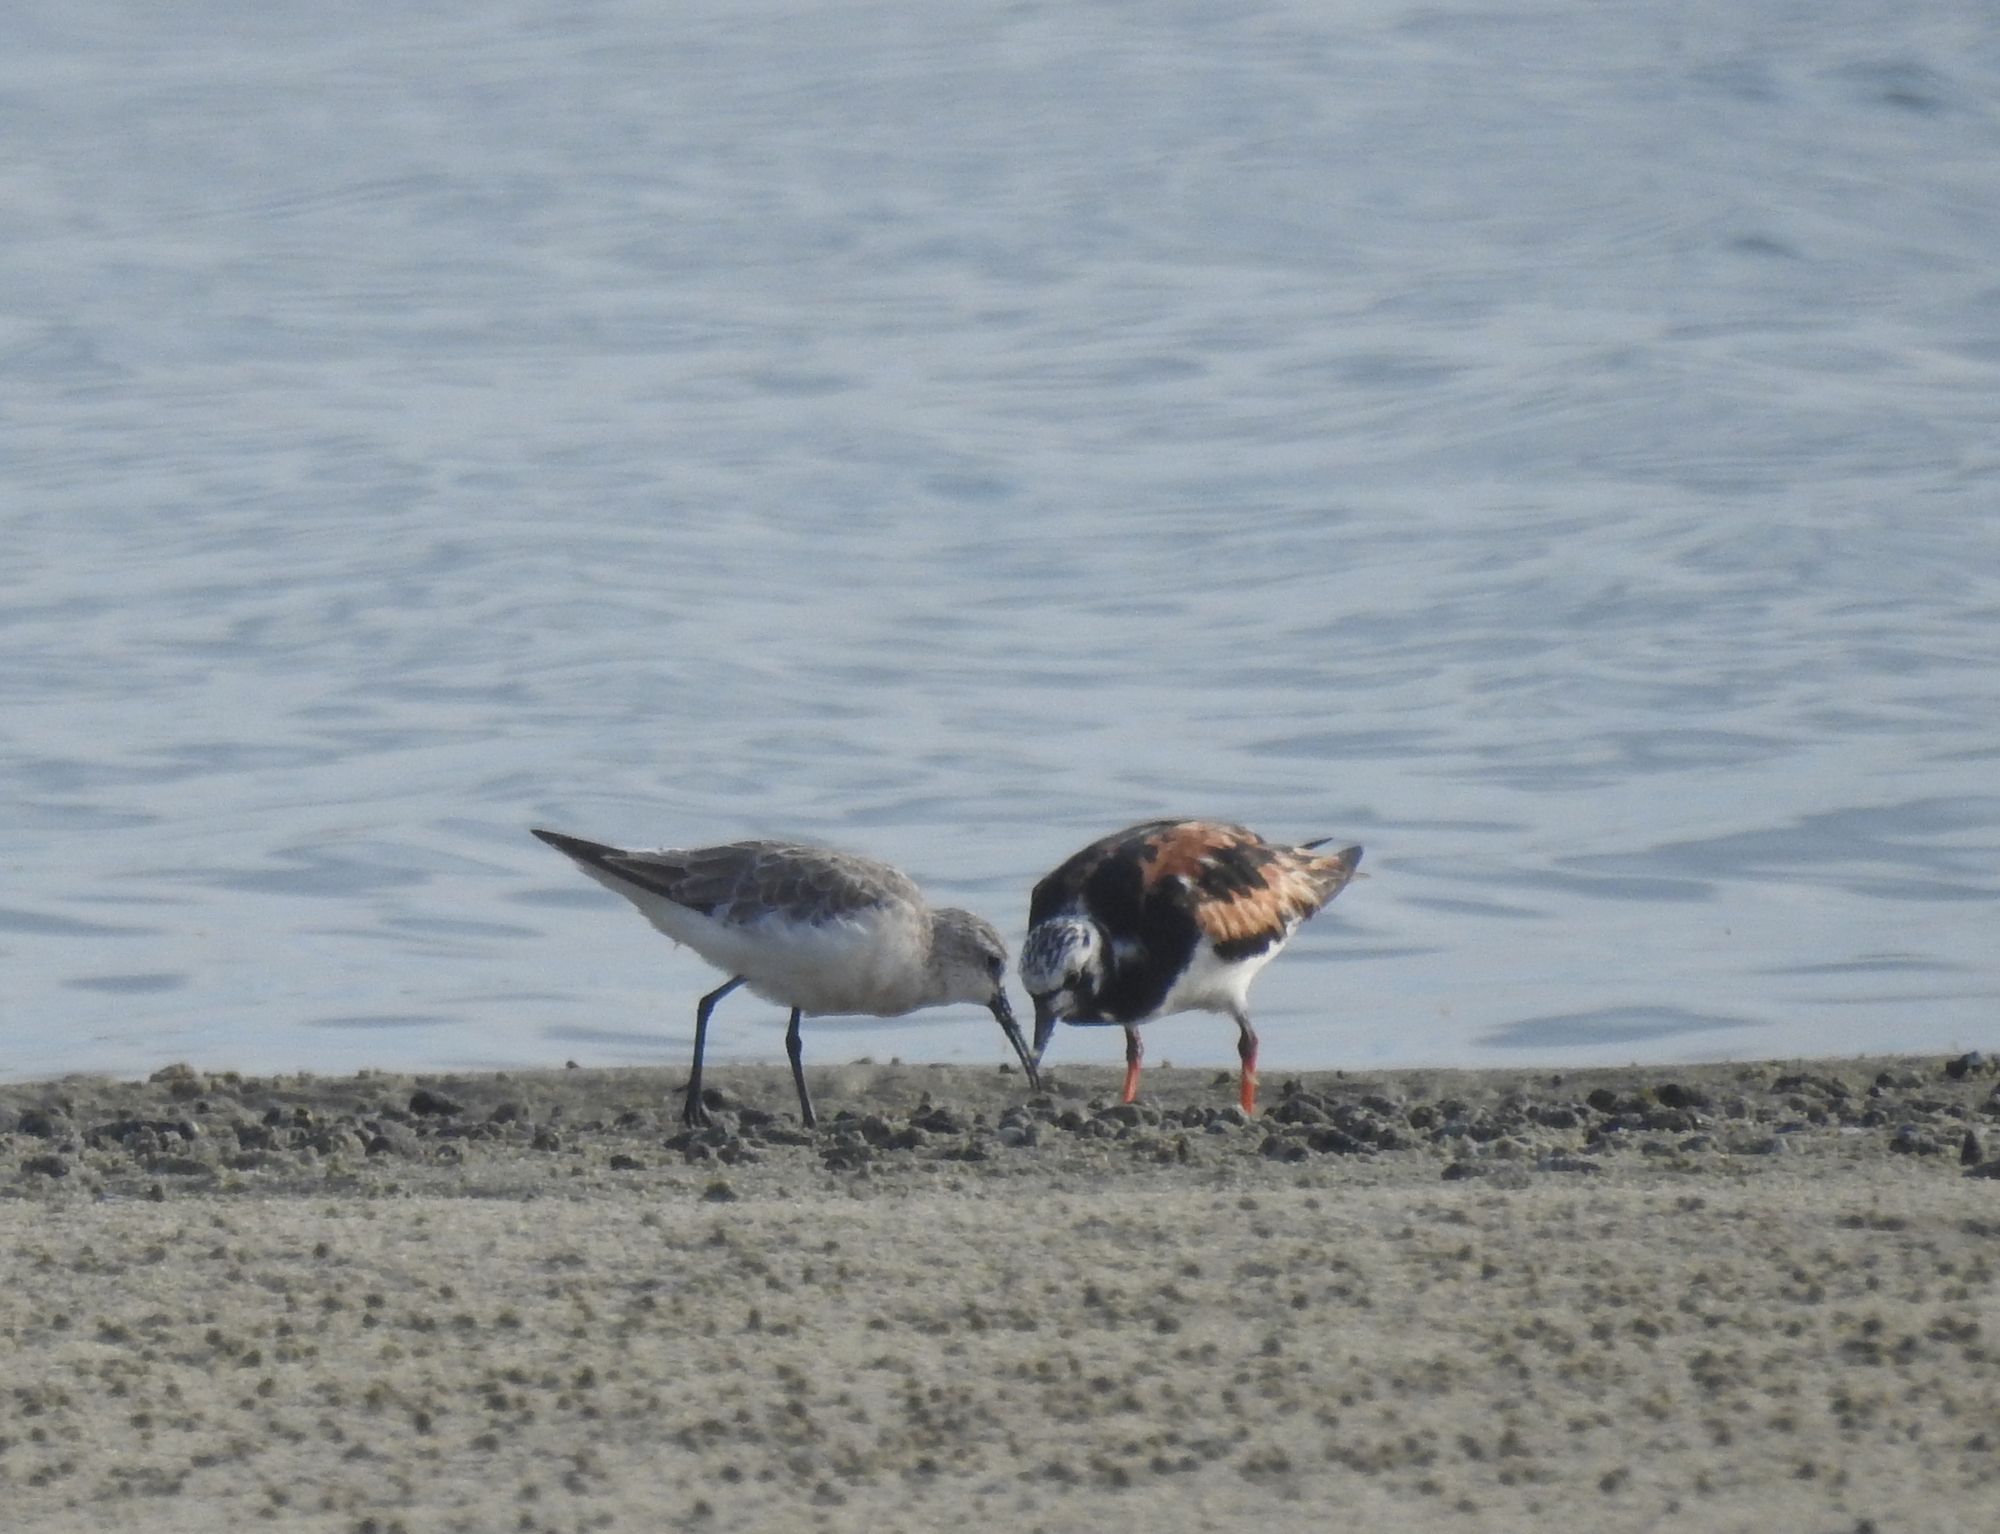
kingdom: Animalia
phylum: Chordata
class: Aves
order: Charadriiformes
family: Scolopacidae
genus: Arenaria
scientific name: Arenaria interpres
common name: Ruddy turnstone
